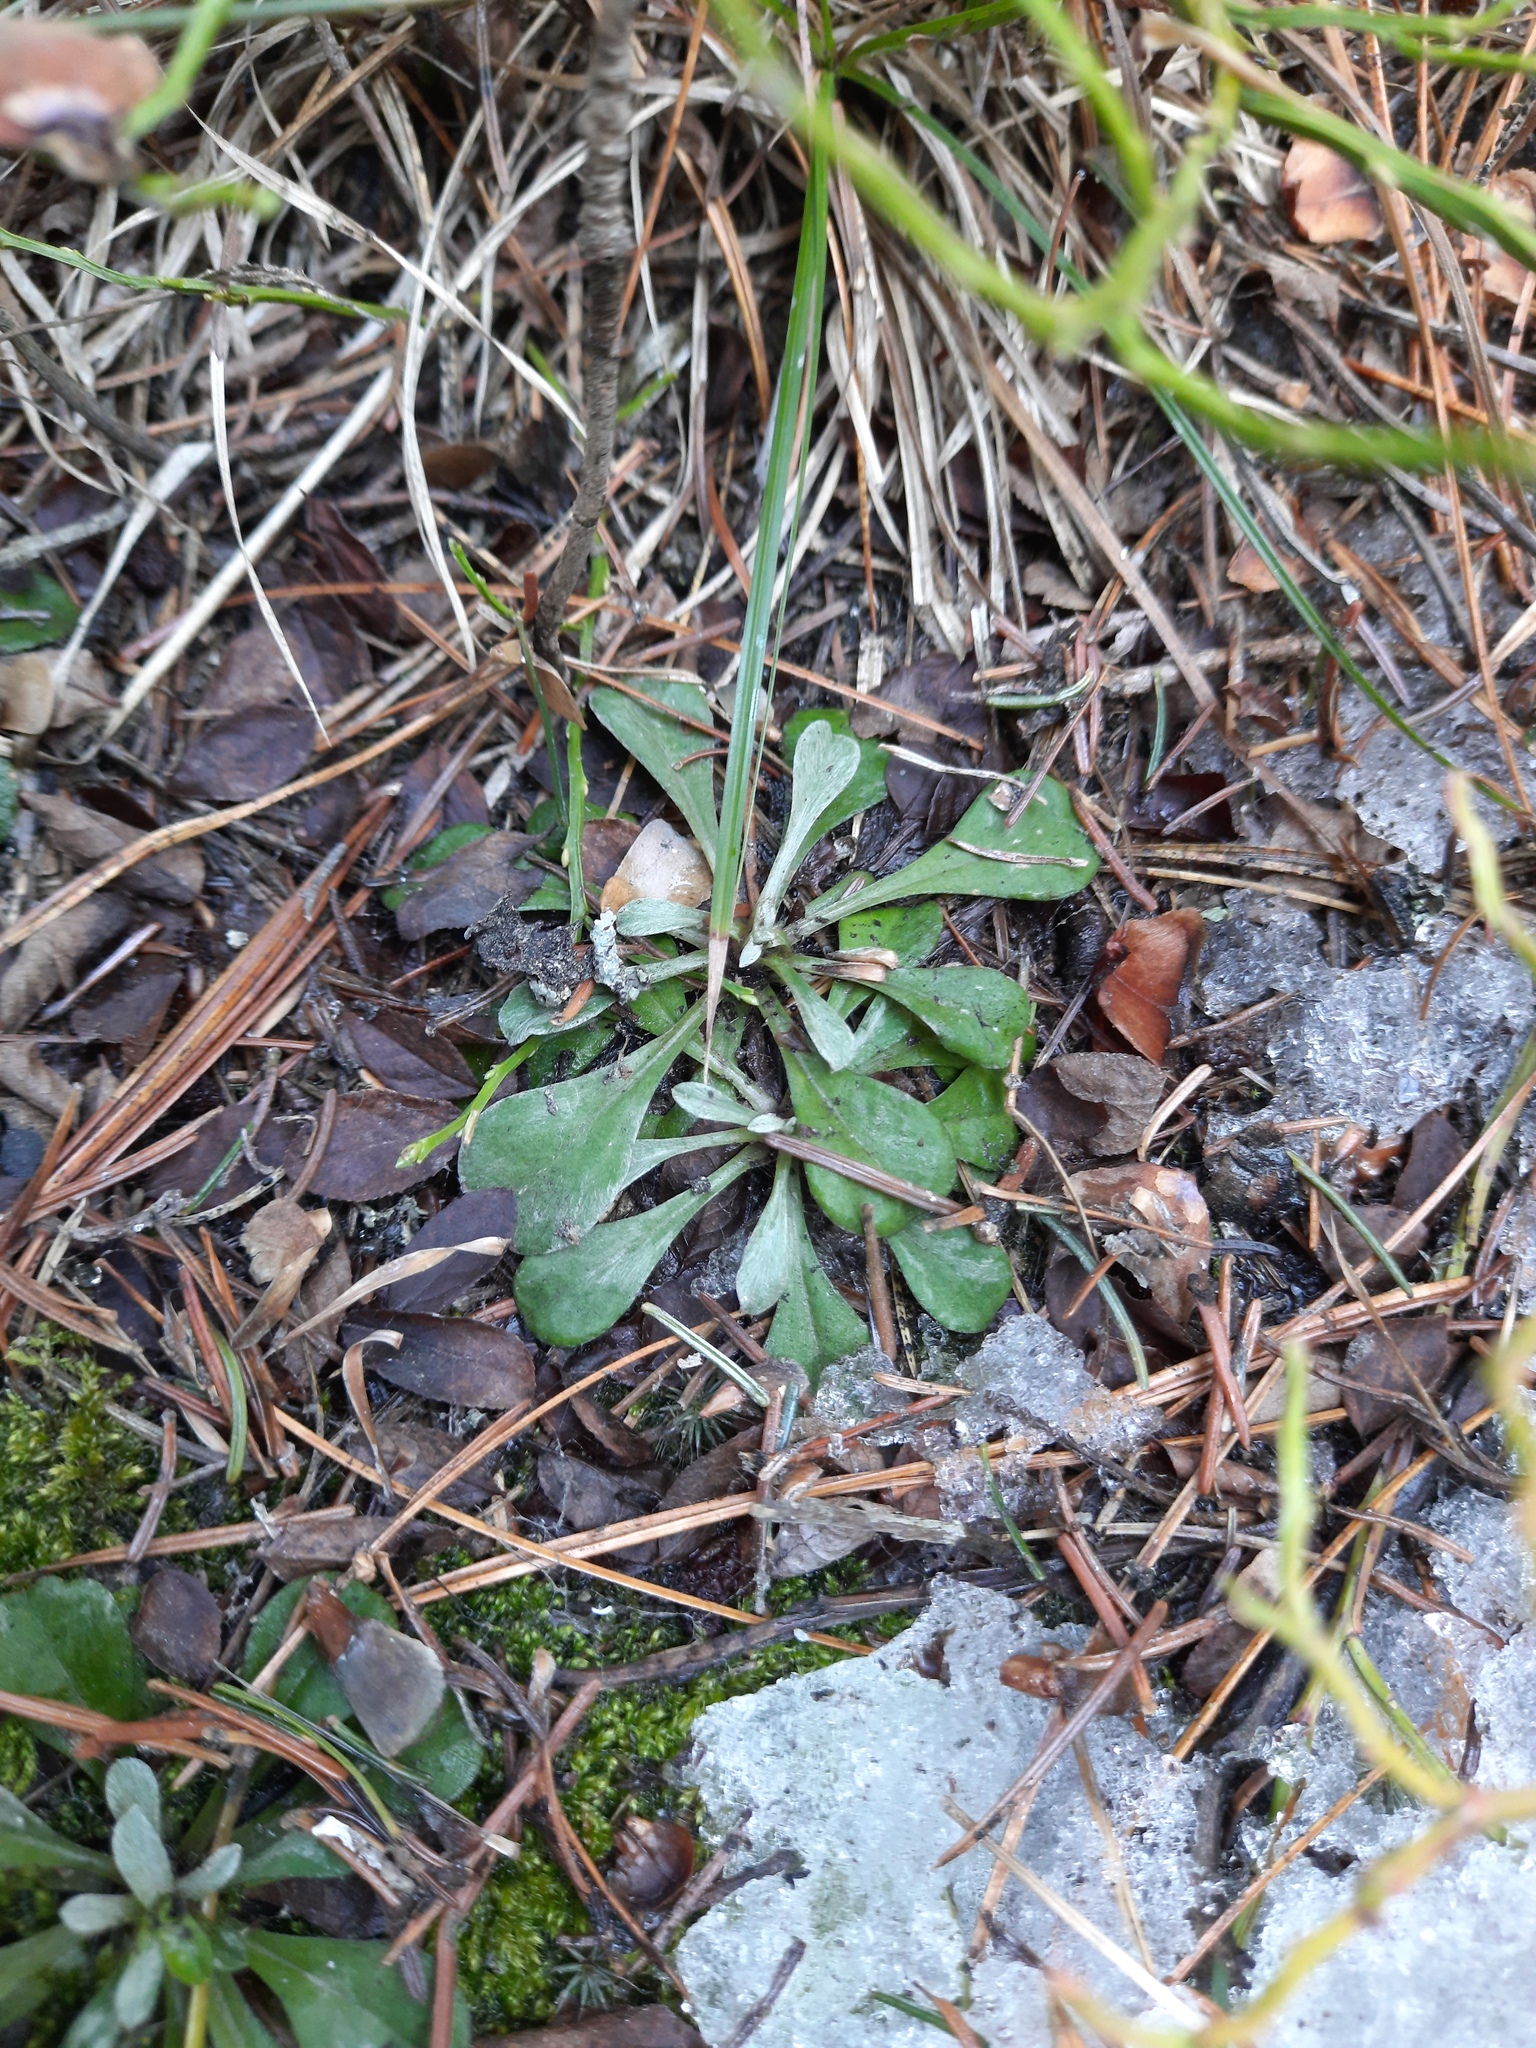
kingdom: Plantae
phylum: Tracheophyta
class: Magnoliopsida
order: Asterales
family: Asteraceae
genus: Antennaria
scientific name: Antennaria dioica
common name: Mountain everlasting
